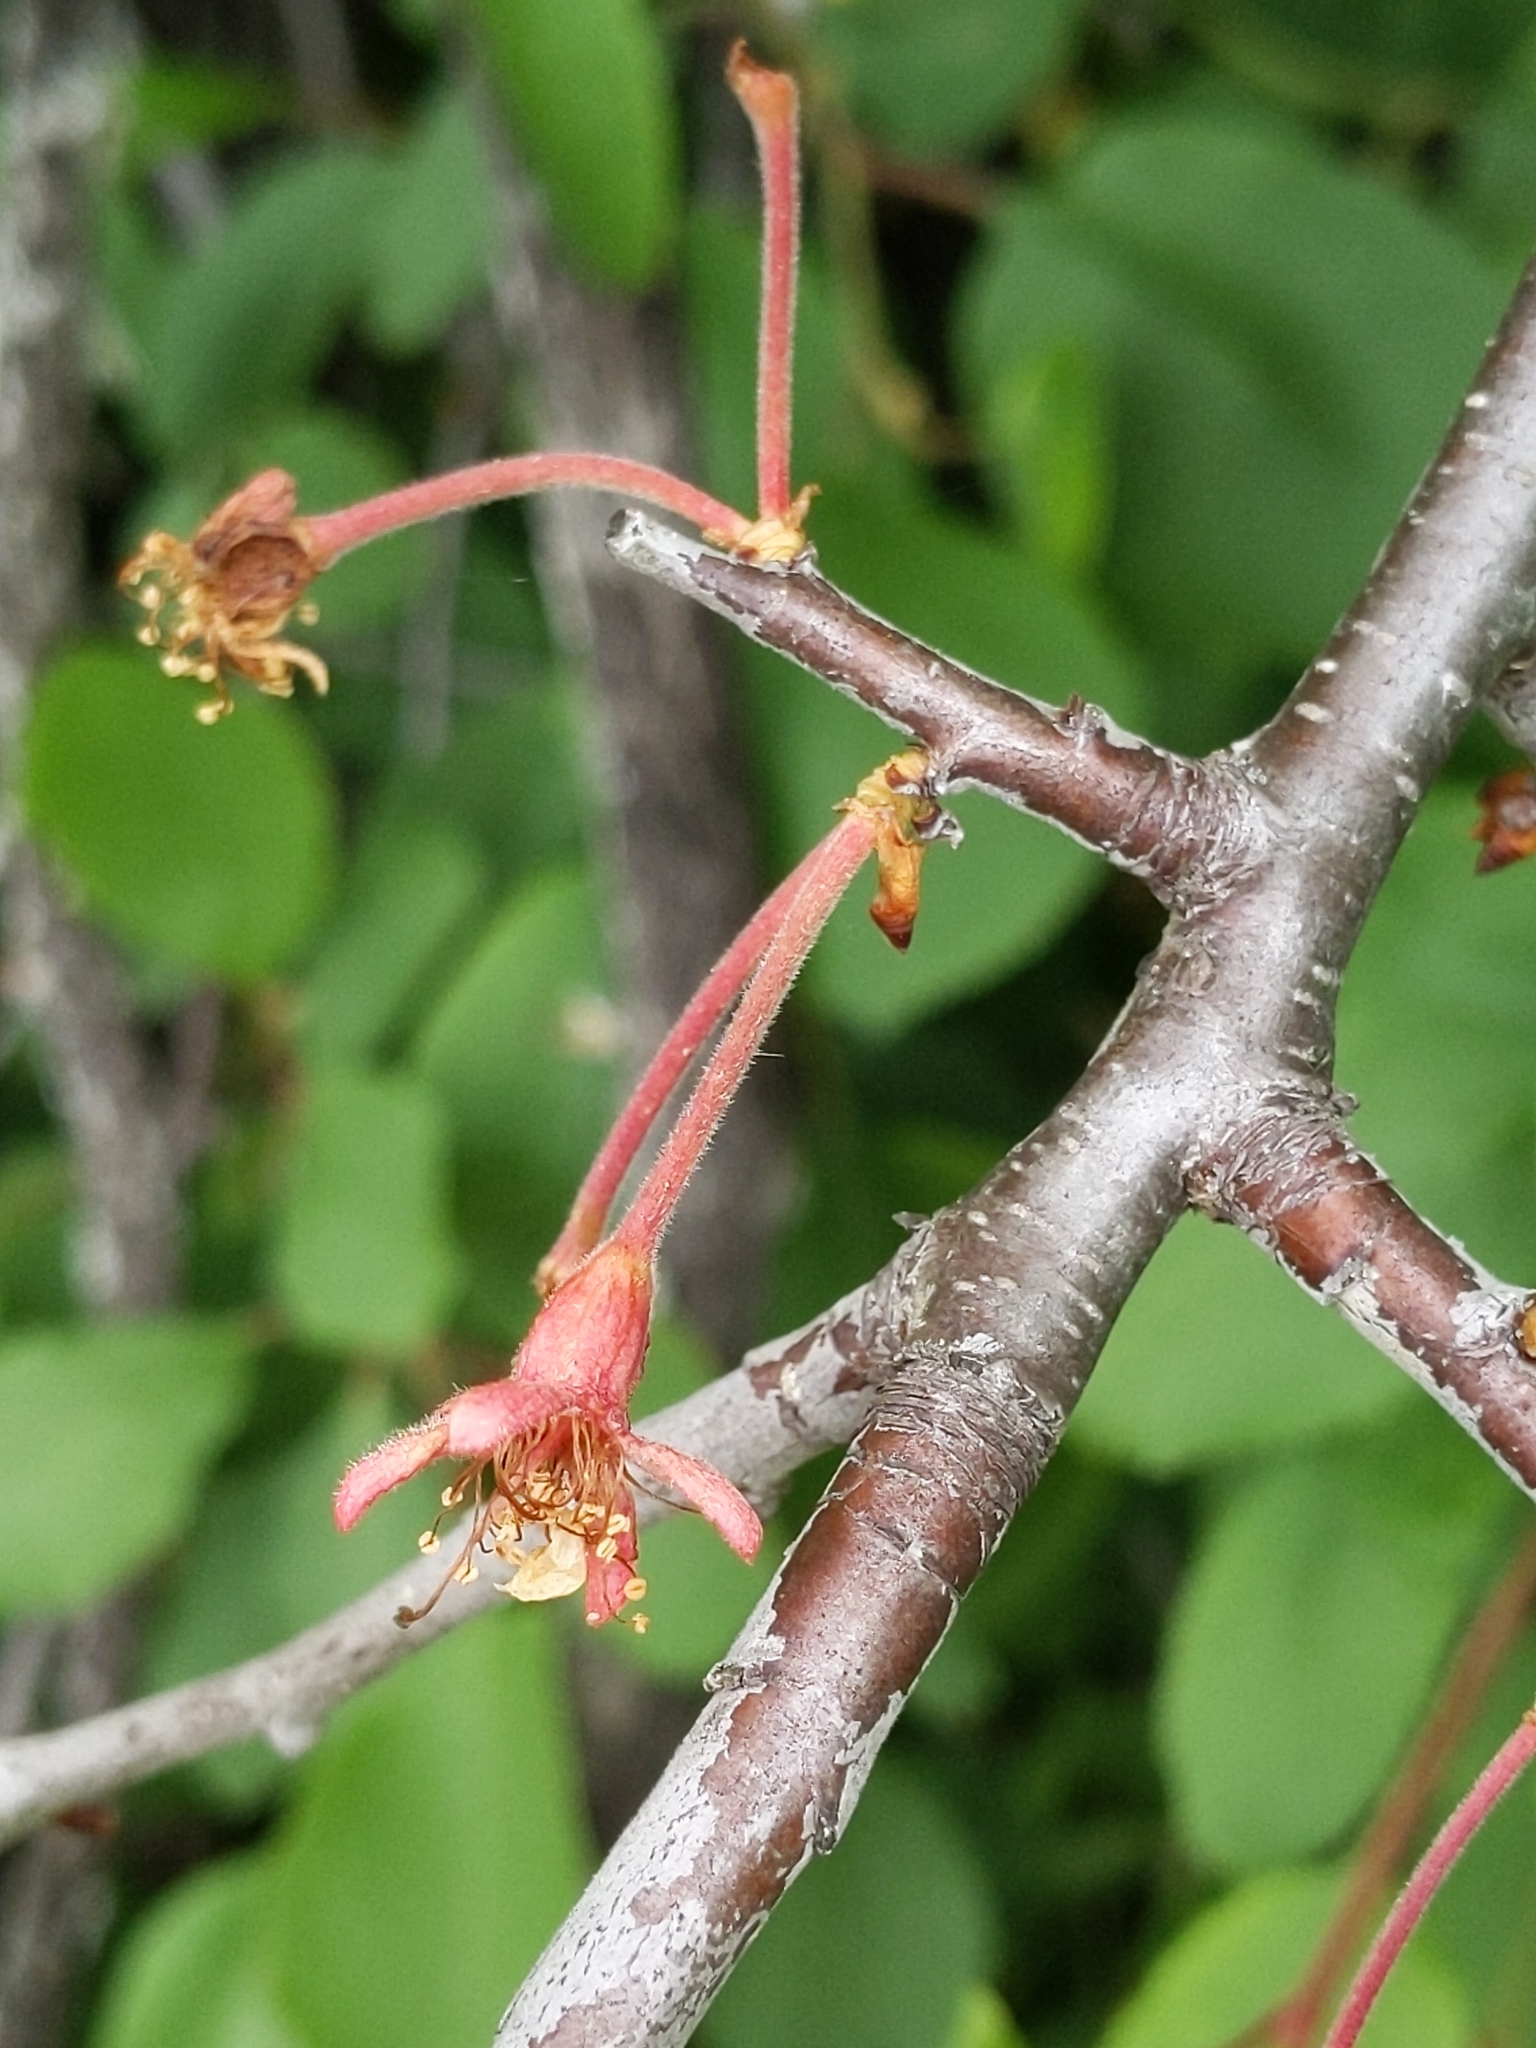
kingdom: Plantae
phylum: Tracheophyta
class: Magnoliopsida
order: Rosales
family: Rosaceae
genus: Prunus
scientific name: Prunus subcordata
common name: Klamath plum
